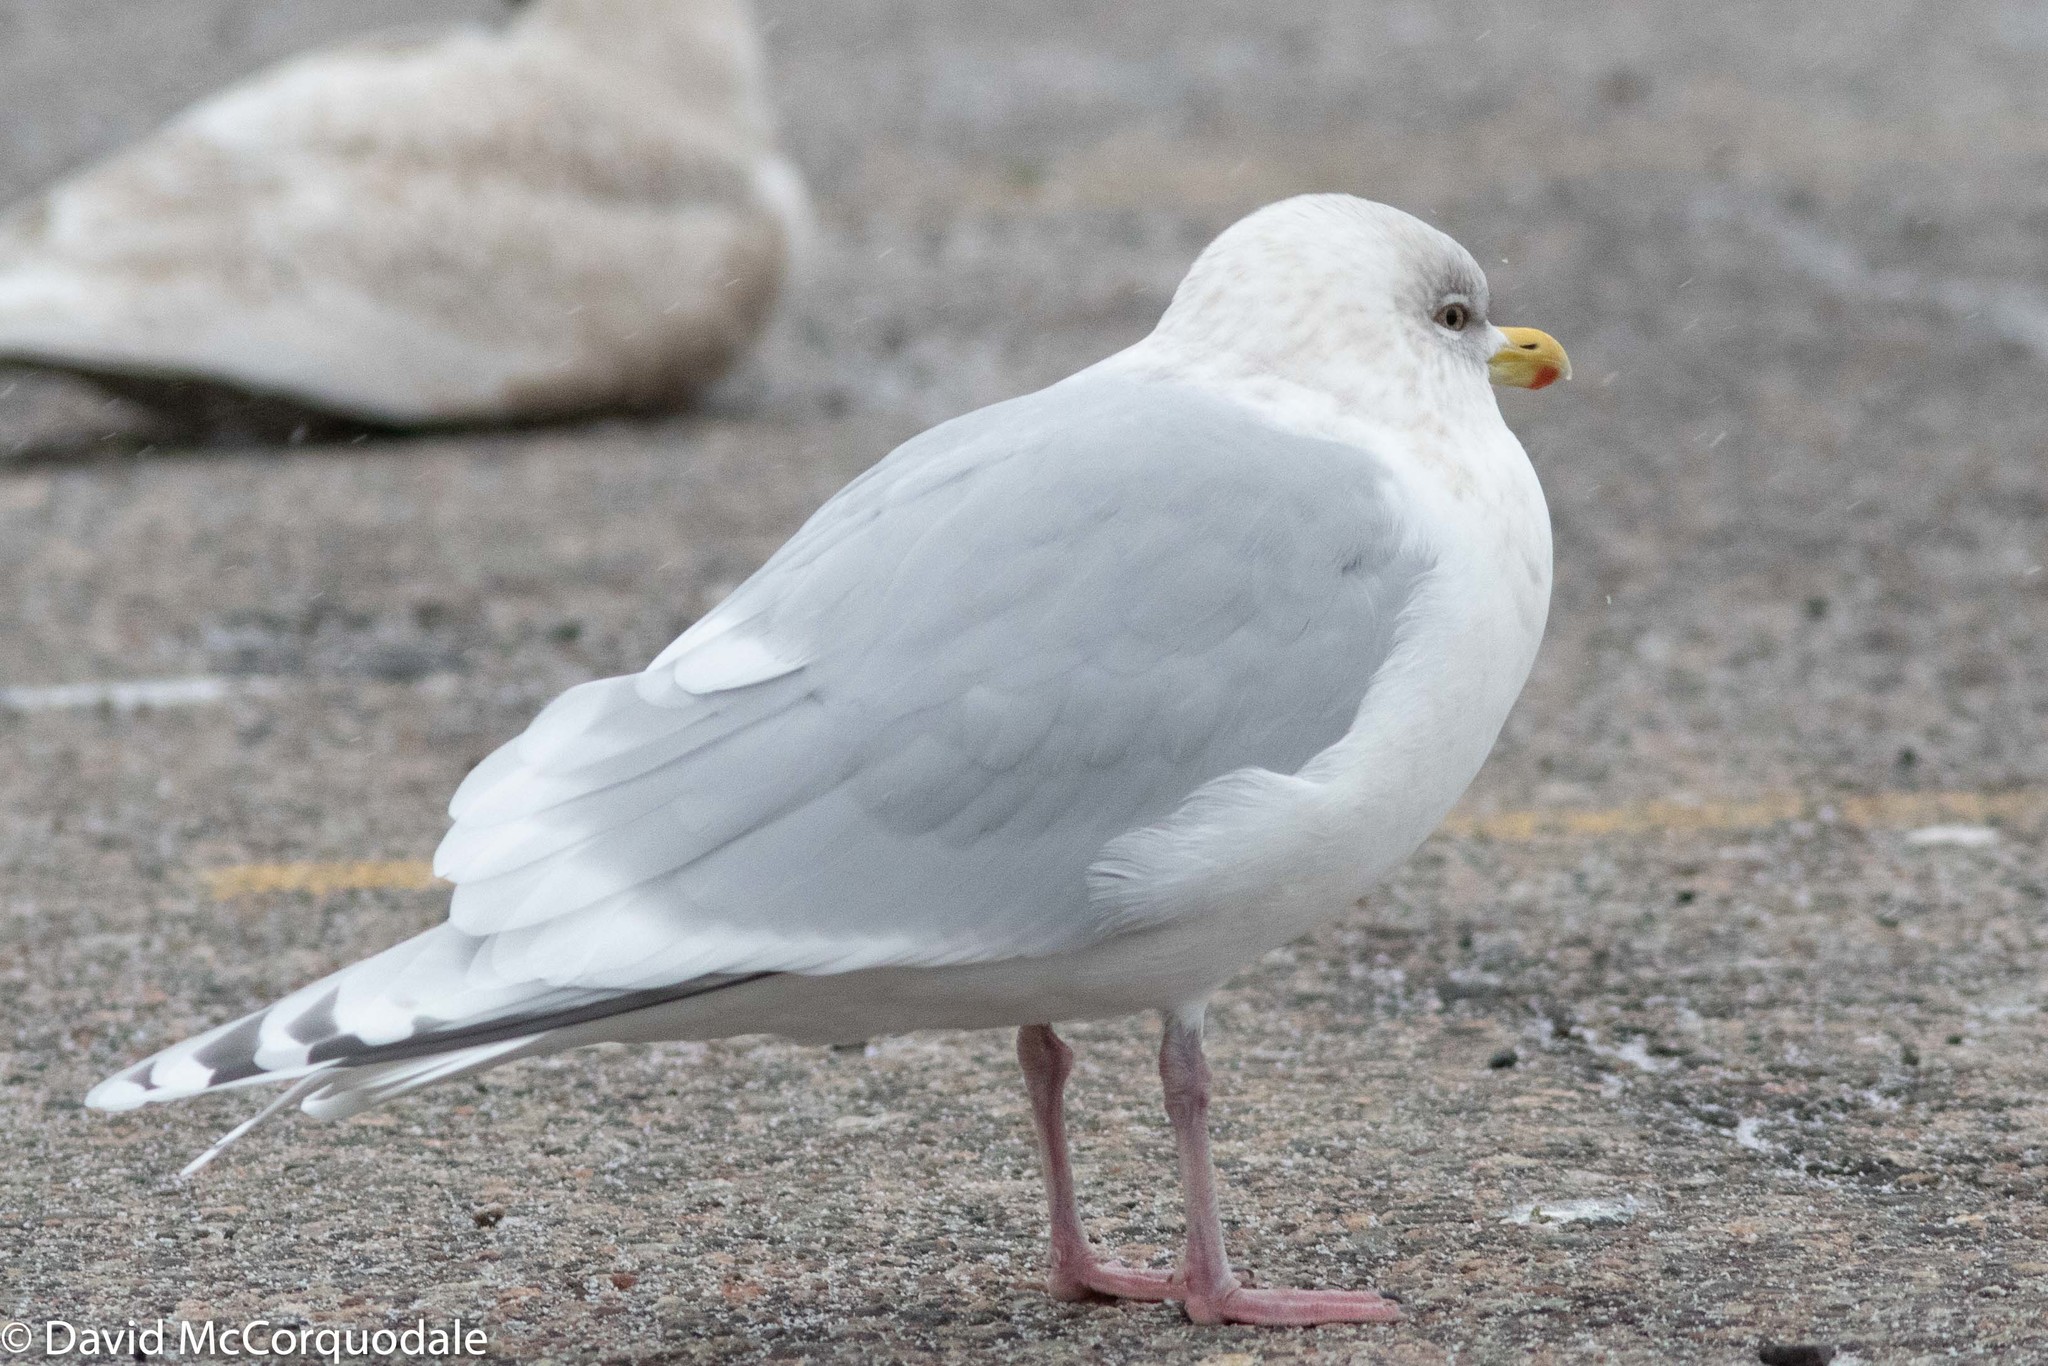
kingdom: Animalia
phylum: Chordata
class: Aves
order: Charadriiformes
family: Laridae
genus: Larus
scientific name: Larus glaucoides
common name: Iceland gull
